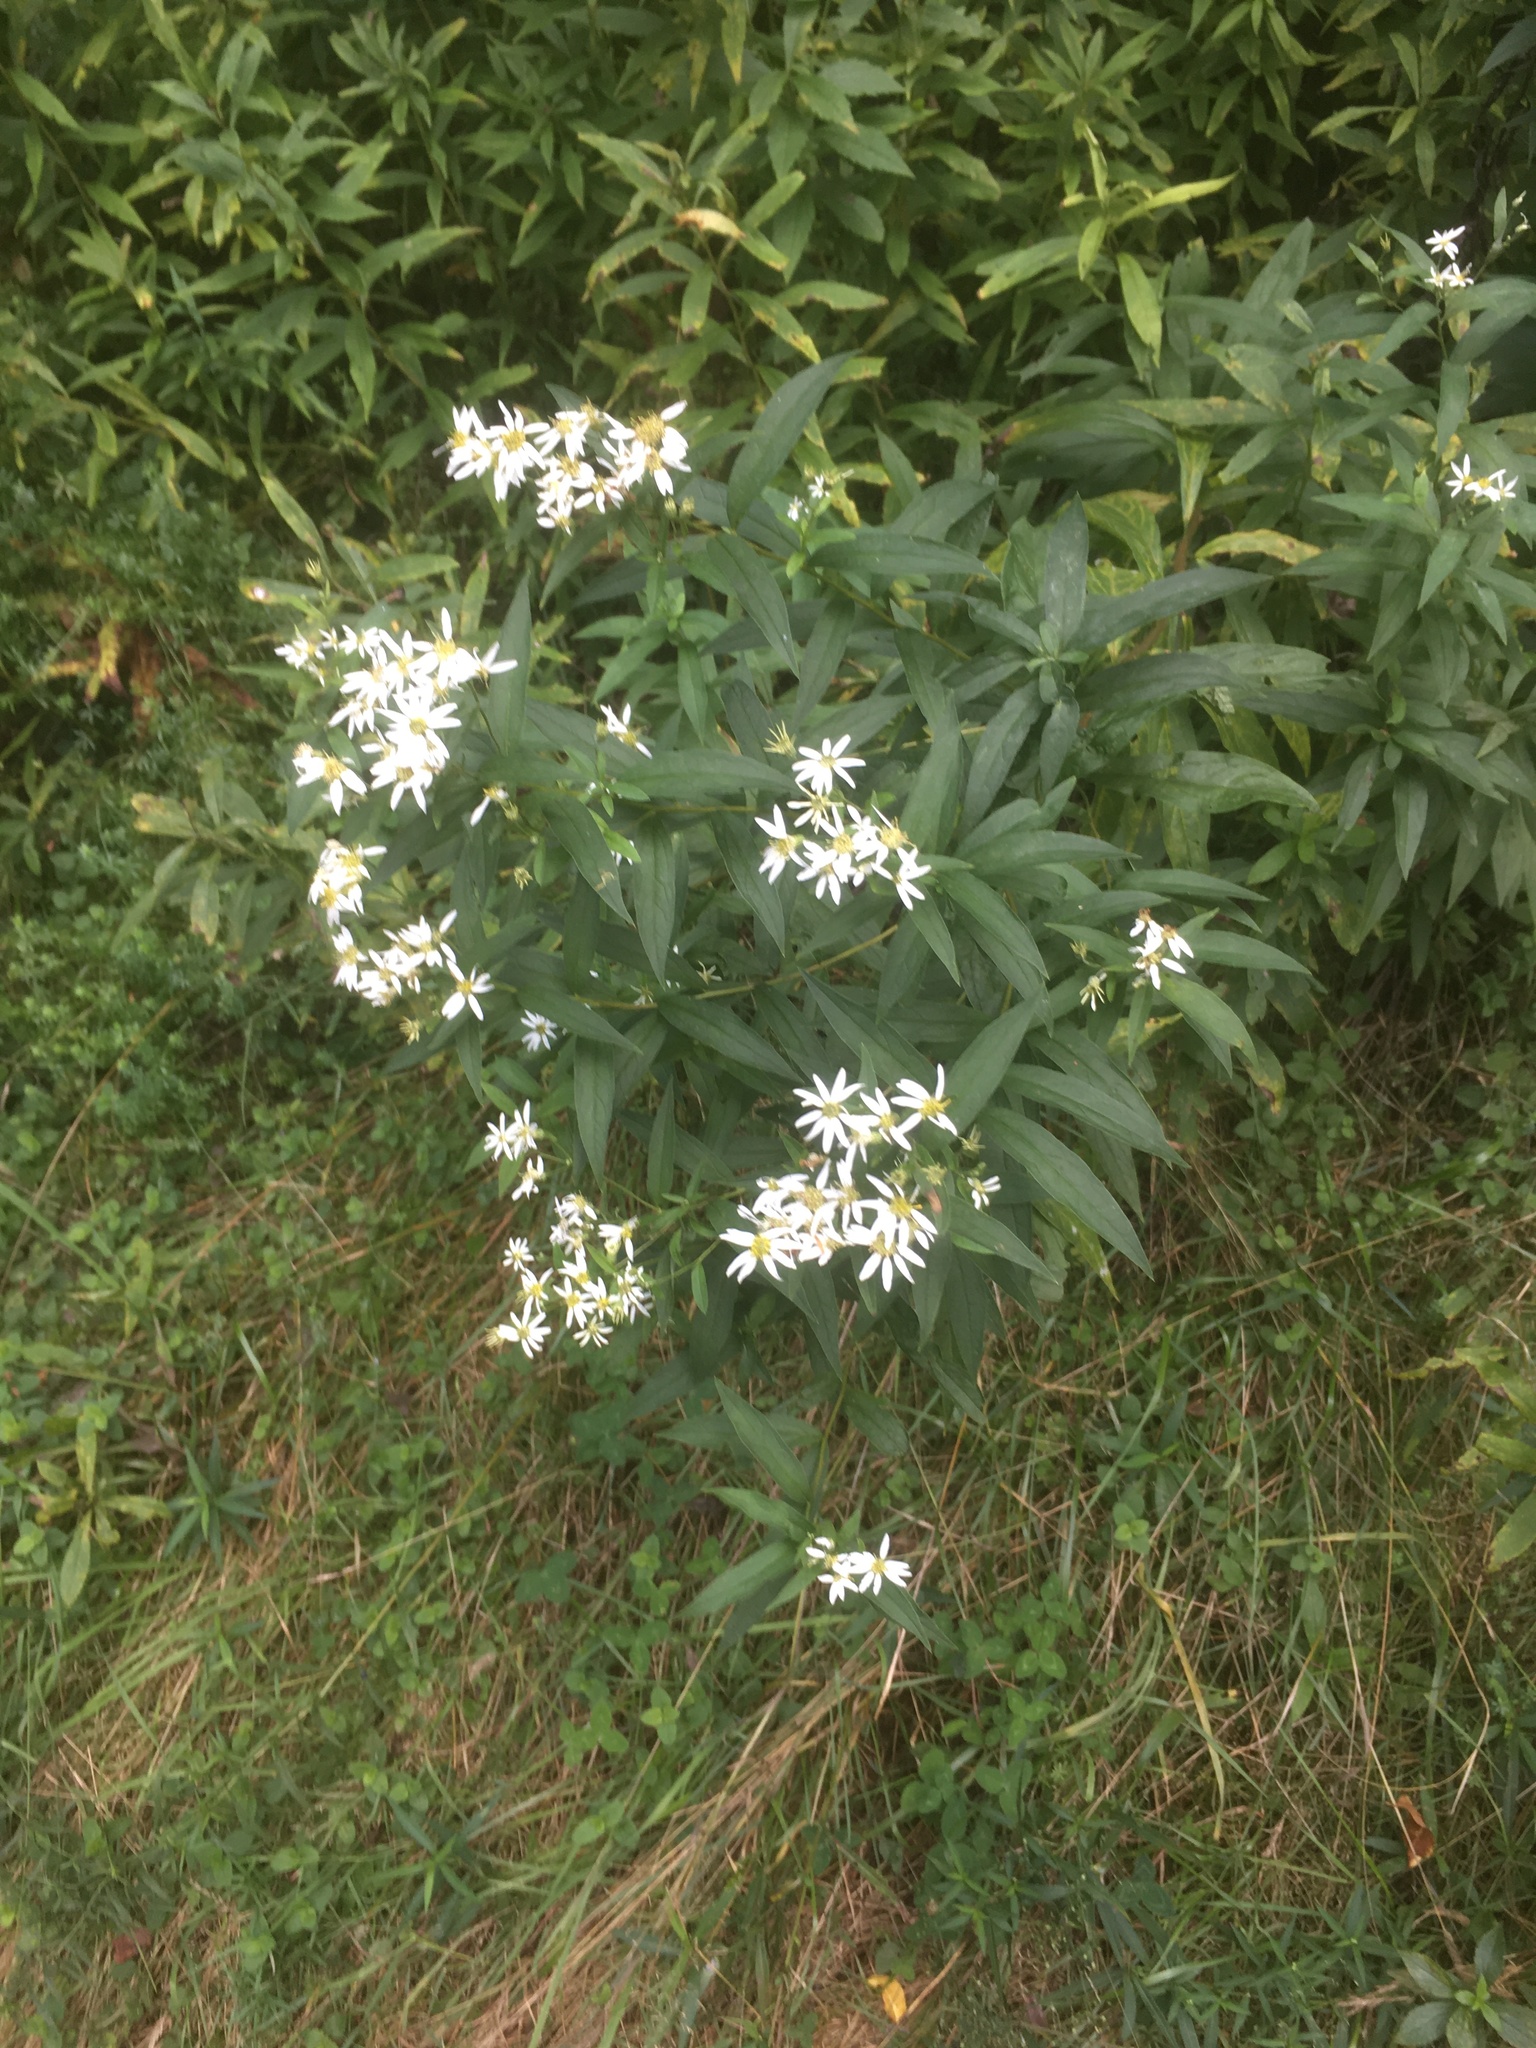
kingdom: Plantae
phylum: Tracheophyta
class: Magnoliopsida
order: Asterales
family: Asteraceae
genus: Doellingeria
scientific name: Doellingeria umbellata
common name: Flat-top white aster
